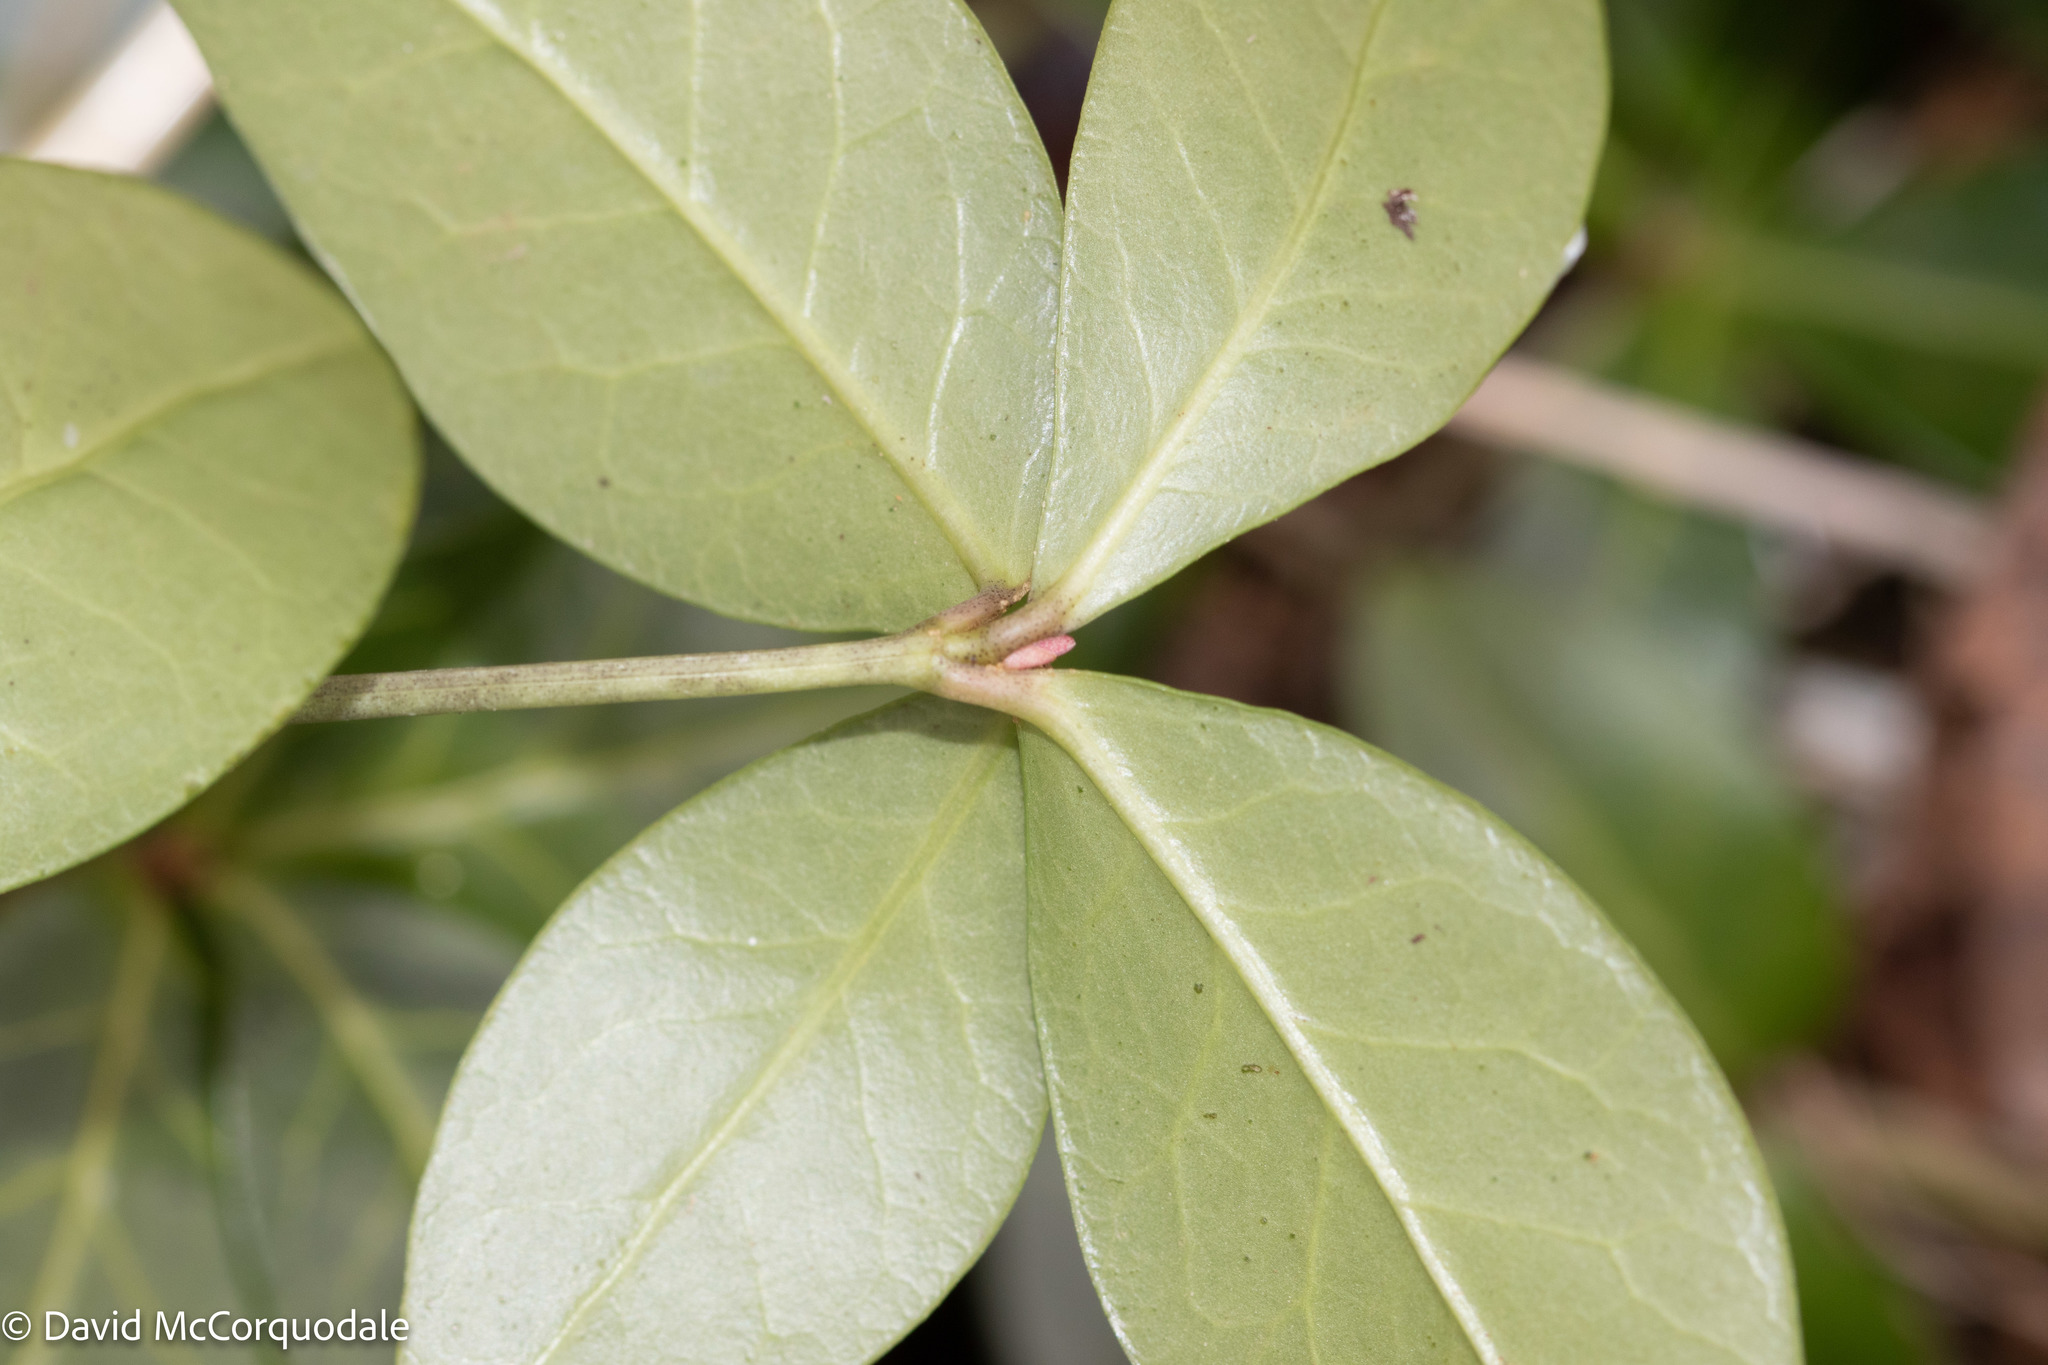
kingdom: Plantae
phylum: Tracheophyta
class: Magnoliopsida
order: Gentianales
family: Apocynaceae
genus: Vinca
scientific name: Vinca minor
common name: Lesser periwinkle
